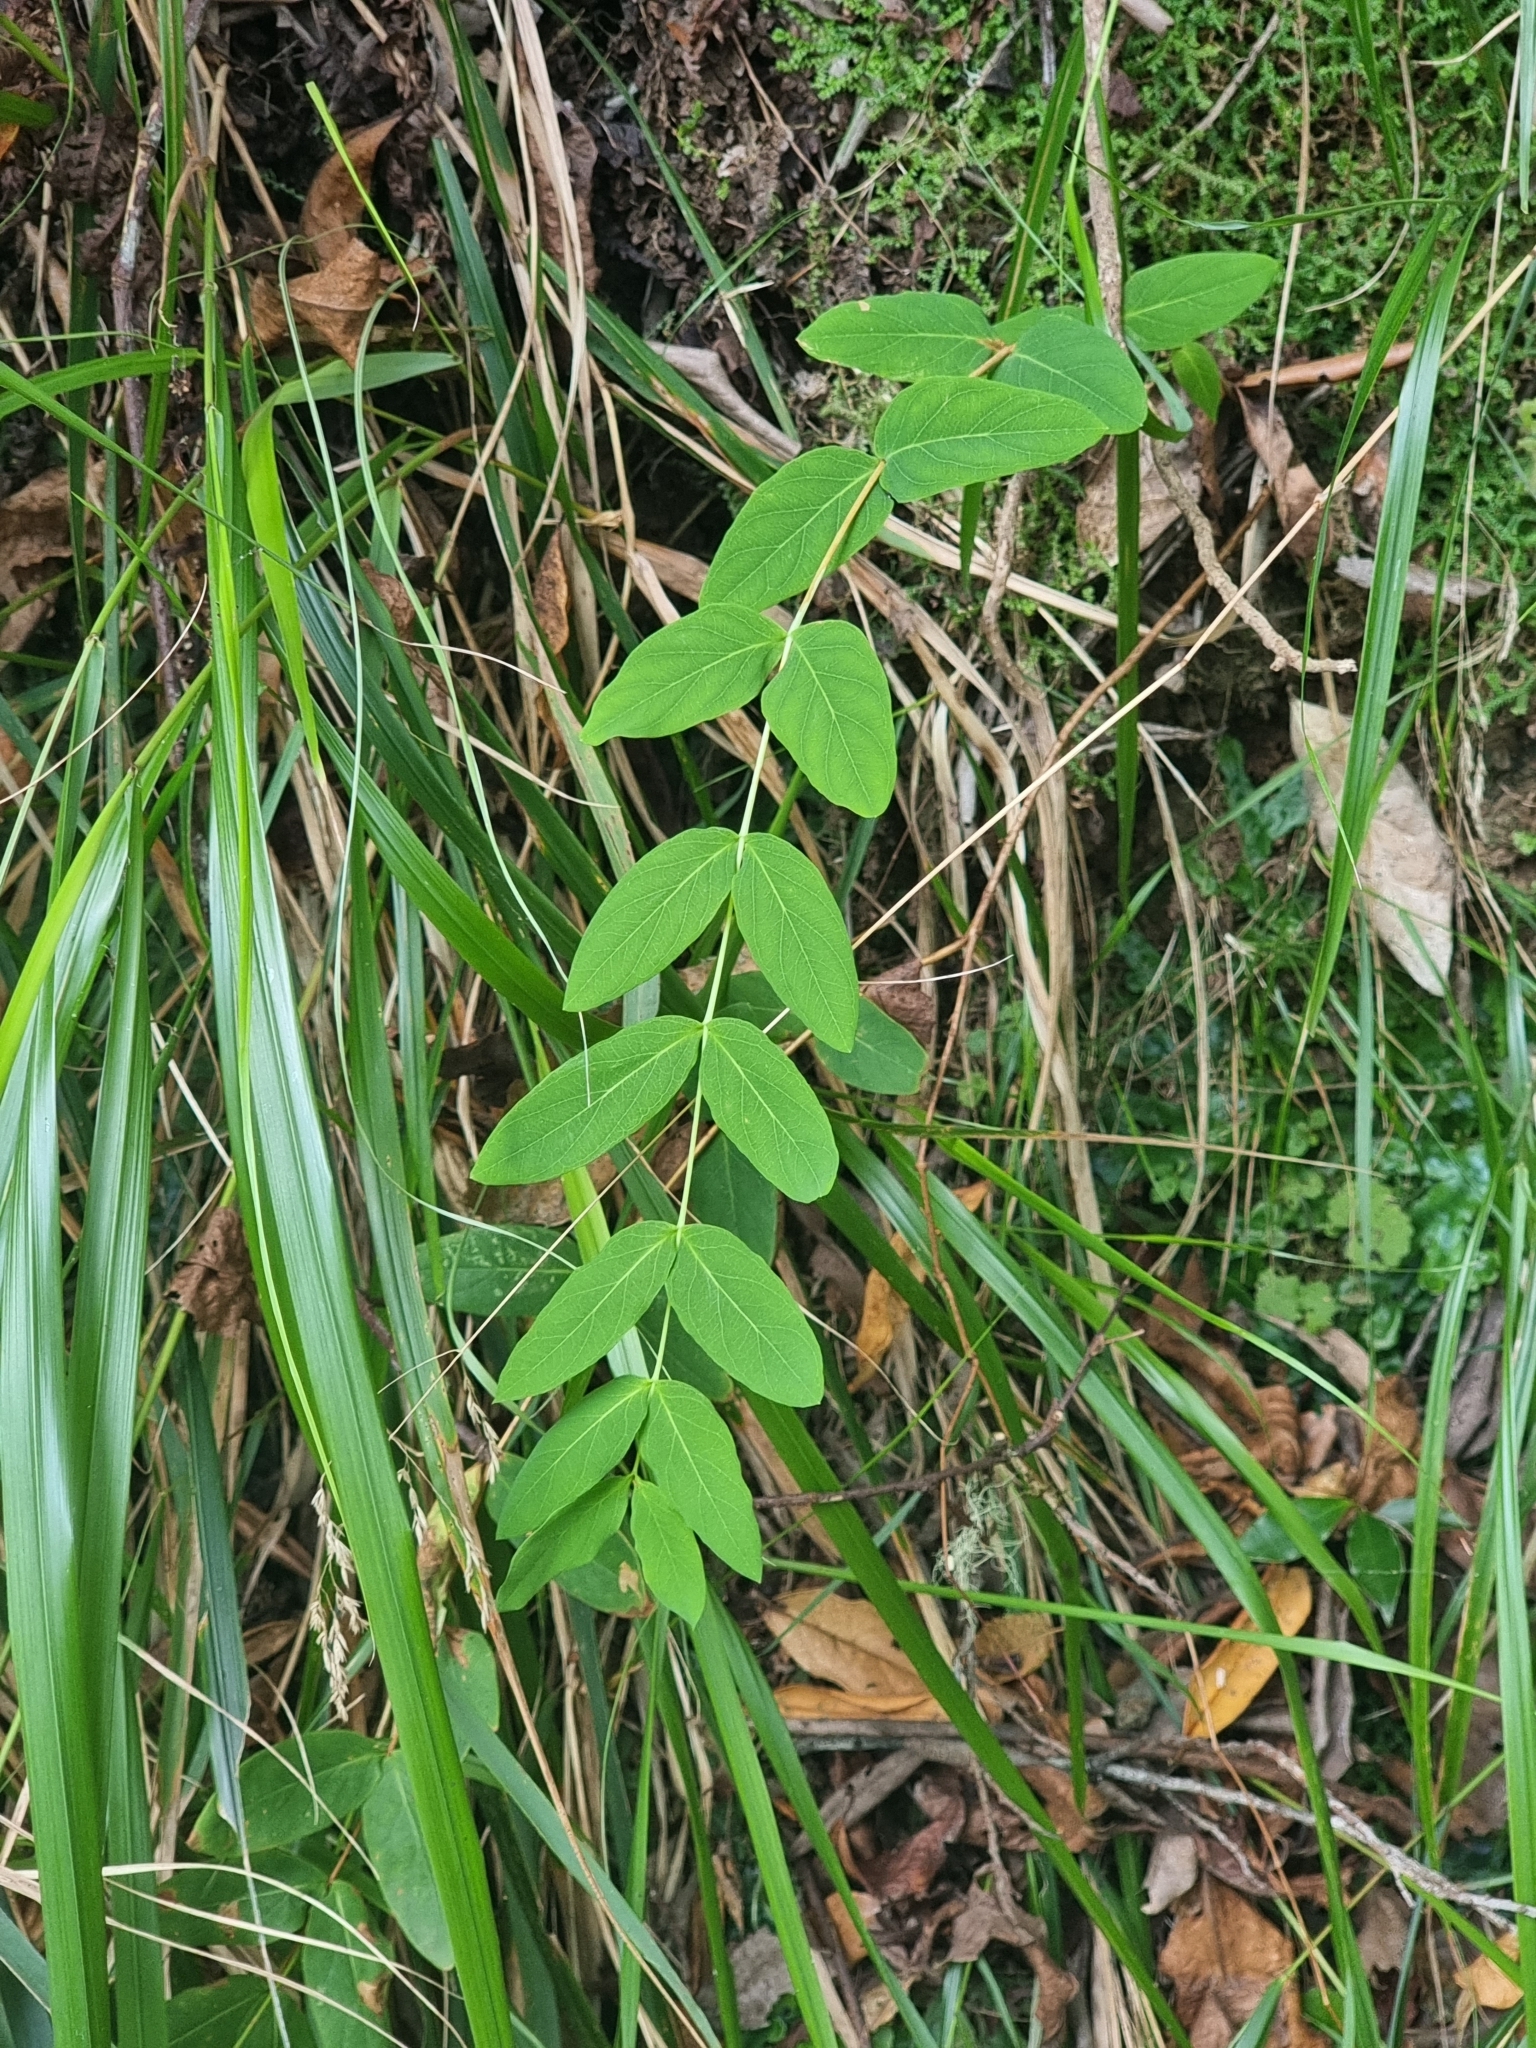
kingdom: Plantae
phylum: Tracheophyta
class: Magnoliopsida
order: Malpighiales
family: Hypericaceae
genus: Hypericum
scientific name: Hypericum grandifolium
